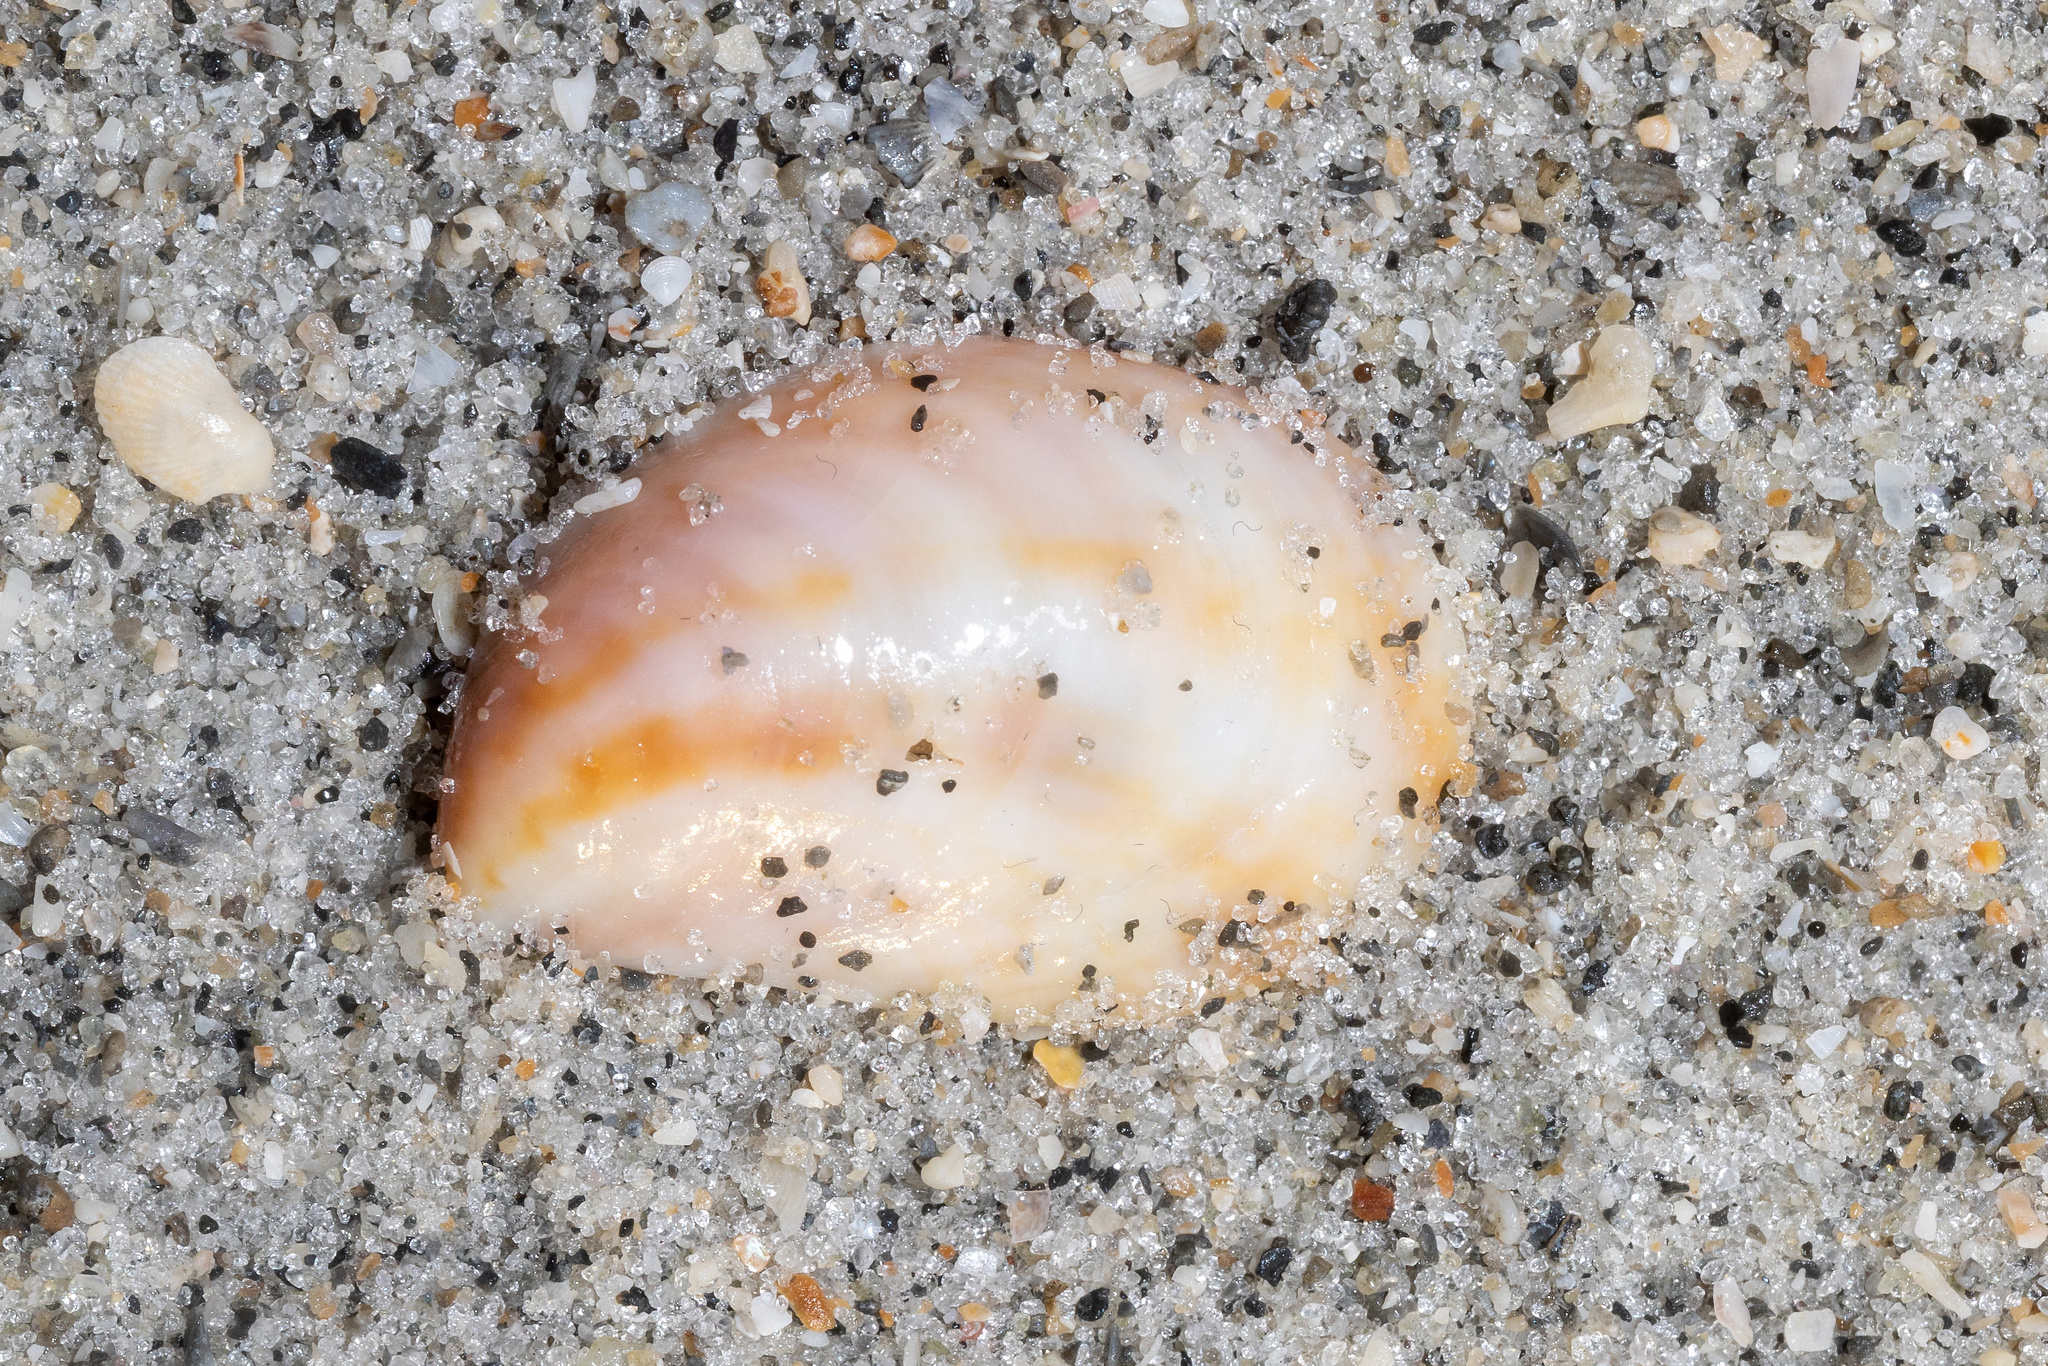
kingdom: Animalia
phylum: Mollusca
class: Gastropoda
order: Littorinimorpha
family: Calyptraeidae
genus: Crepidula
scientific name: Crepidula fornicata
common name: Slipper limpet
